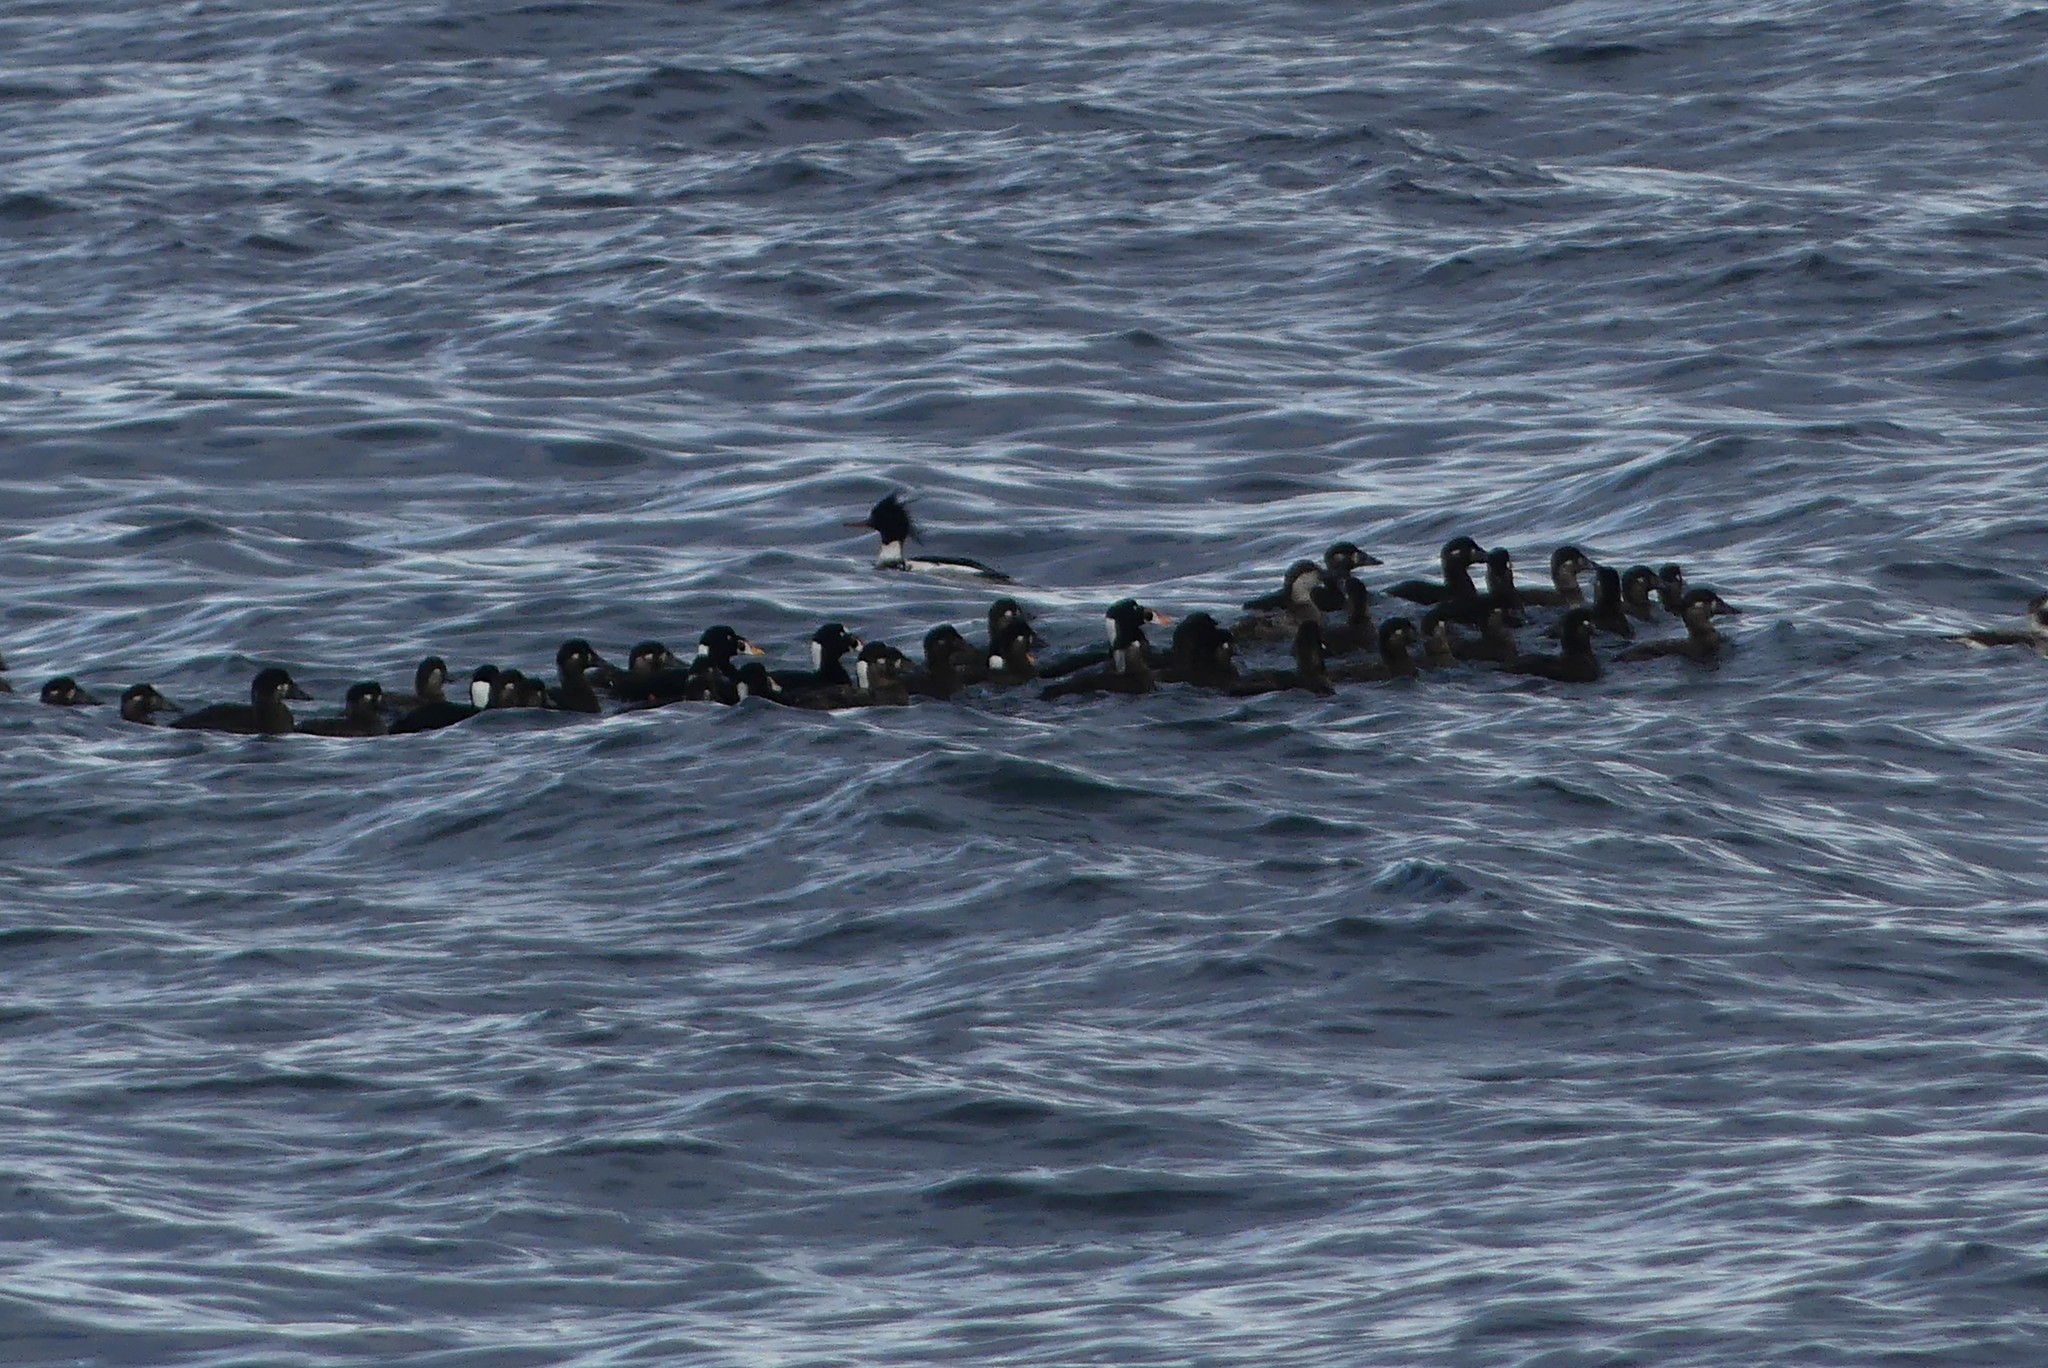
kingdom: Animalia
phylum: Chordata
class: Aves
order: Anseriformes
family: Anatidae
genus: Mergus
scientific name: Mergus serrator
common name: Red-breasted merganser
